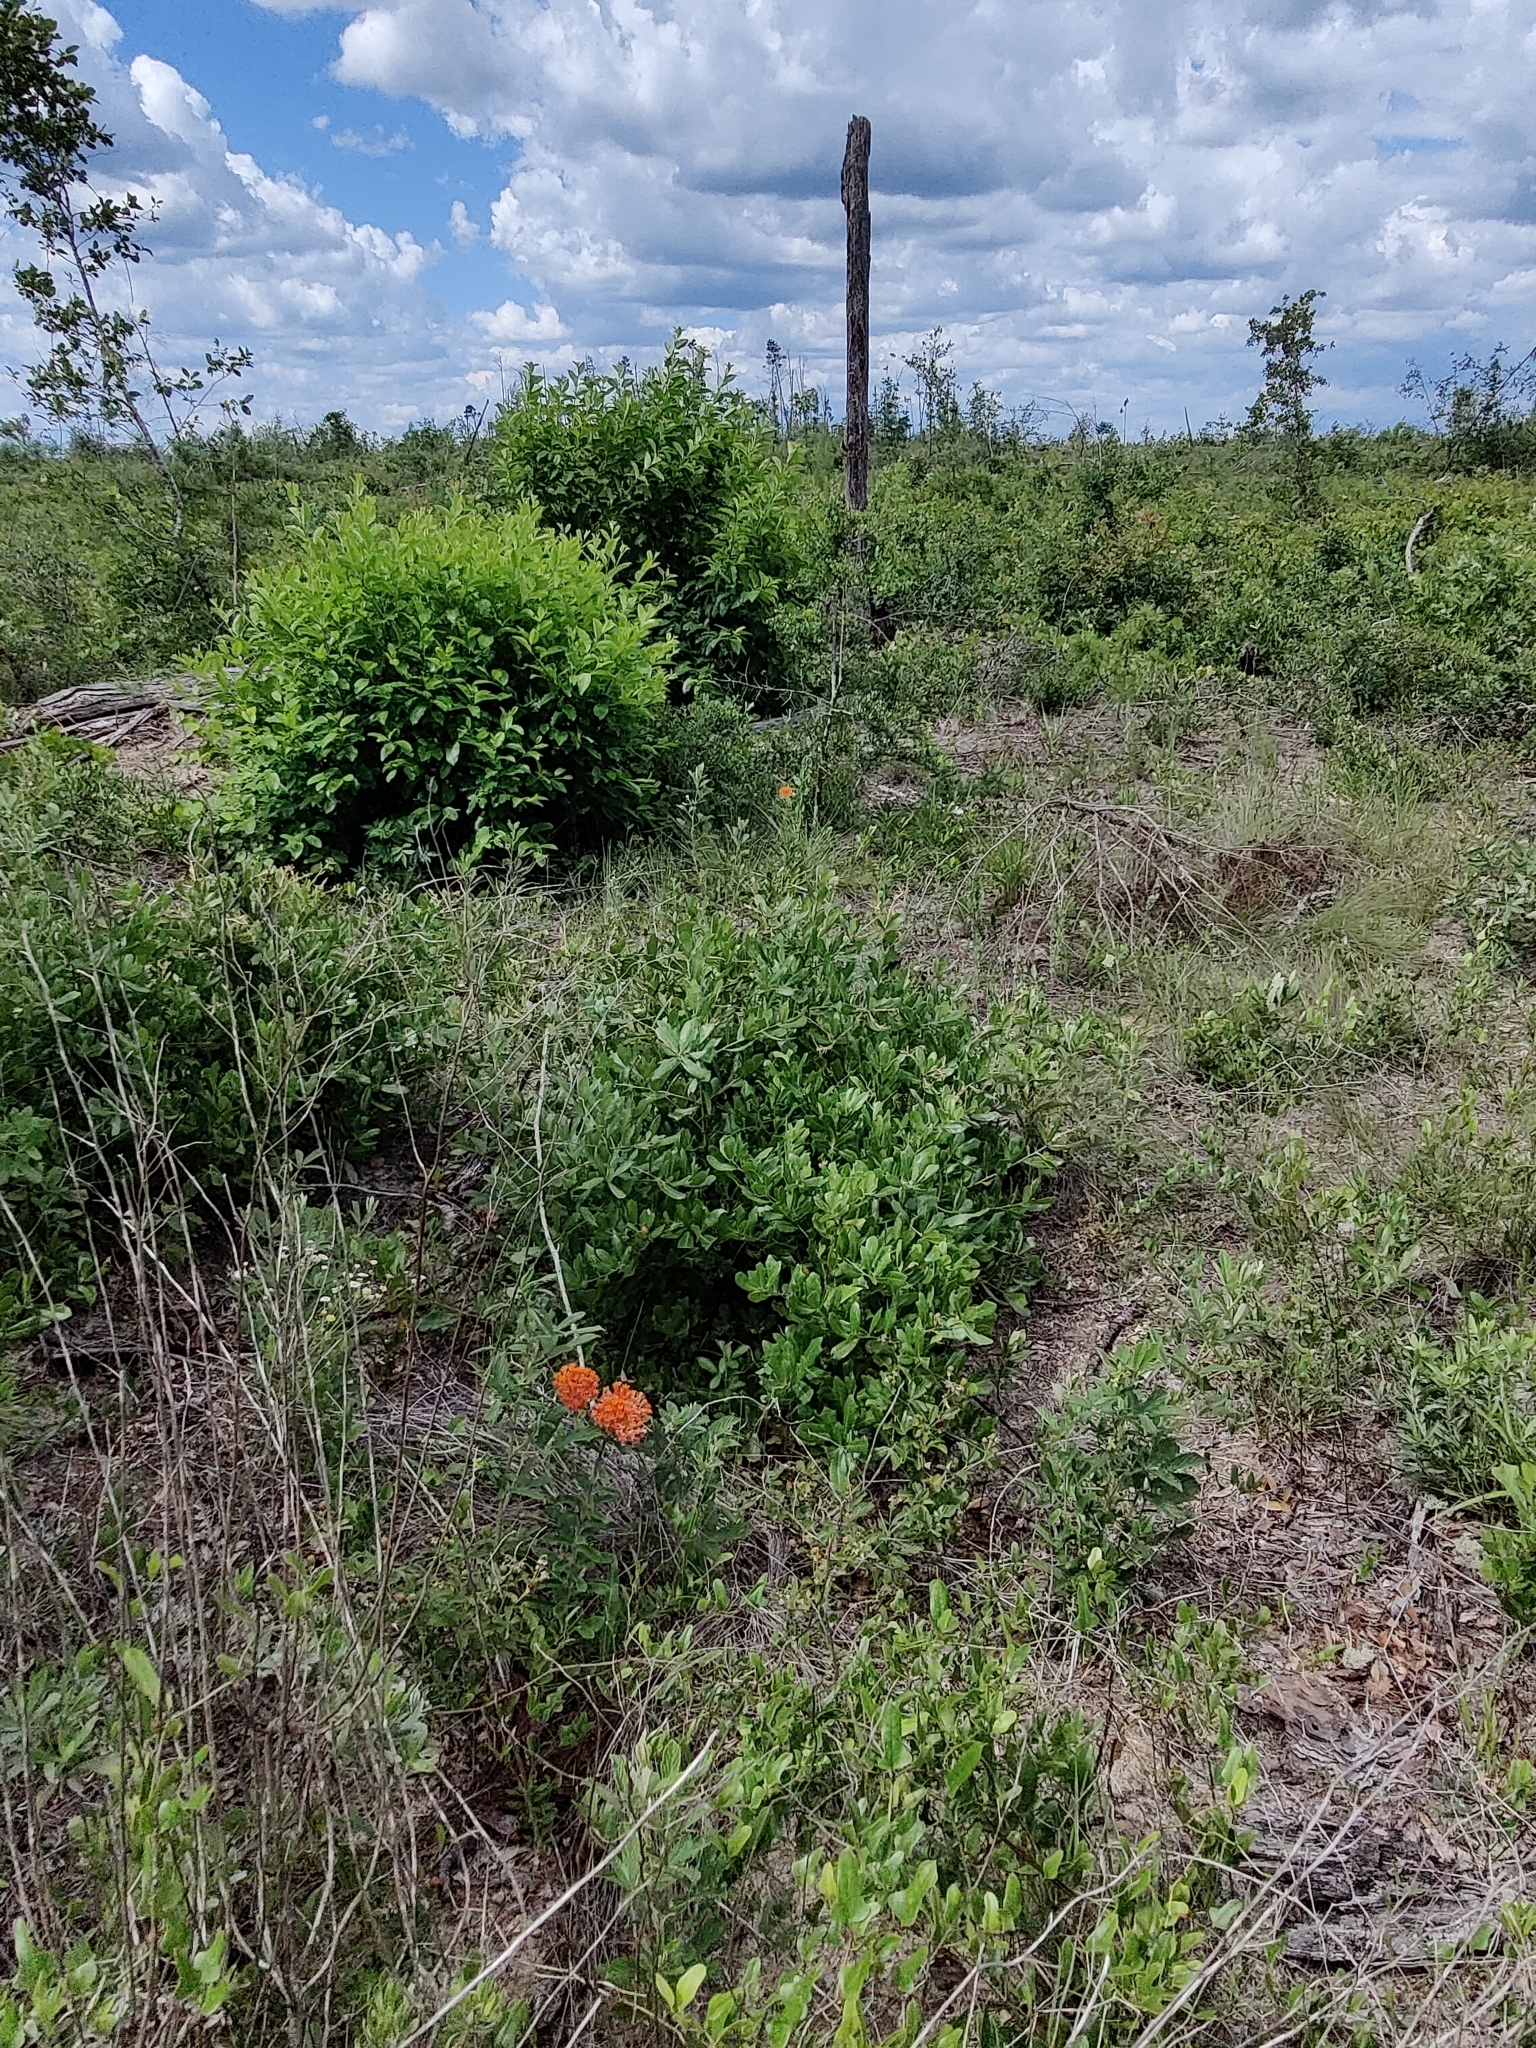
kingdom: Plantae
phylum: Tracheophyta
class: Magnoliopsida
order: Gentianales
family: Apocynaceae
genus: Asclepias
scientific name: Asclepias tuberosa
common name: Butterfly milkweed
